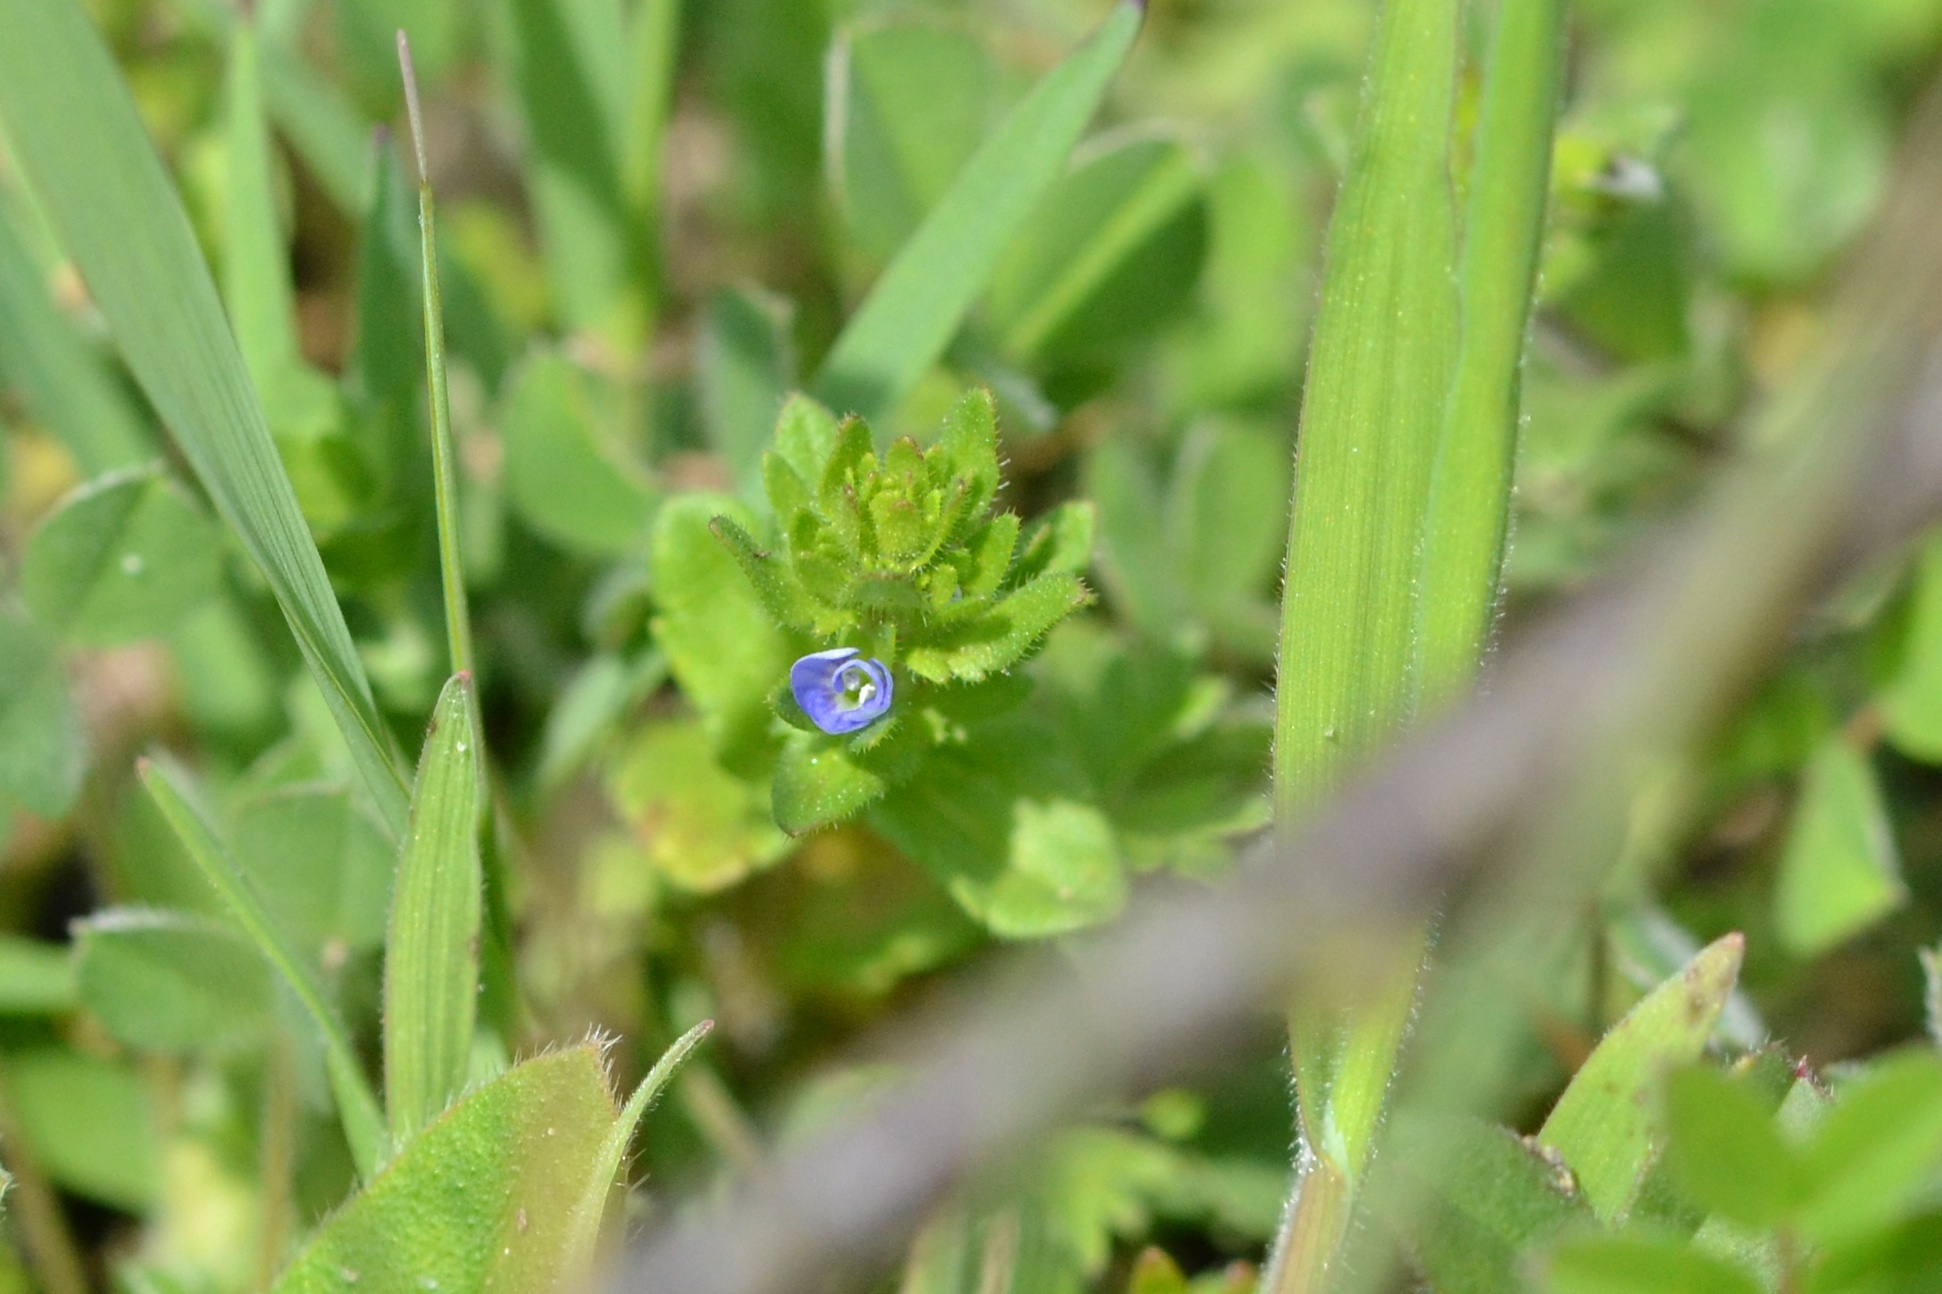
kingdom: Plantae
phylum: Tracheophyta
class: Magnoliopsida
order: Lamiales
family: Plantaginaceae
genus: Veronica
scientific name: Veronica arvensis
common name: Corn speedwell
